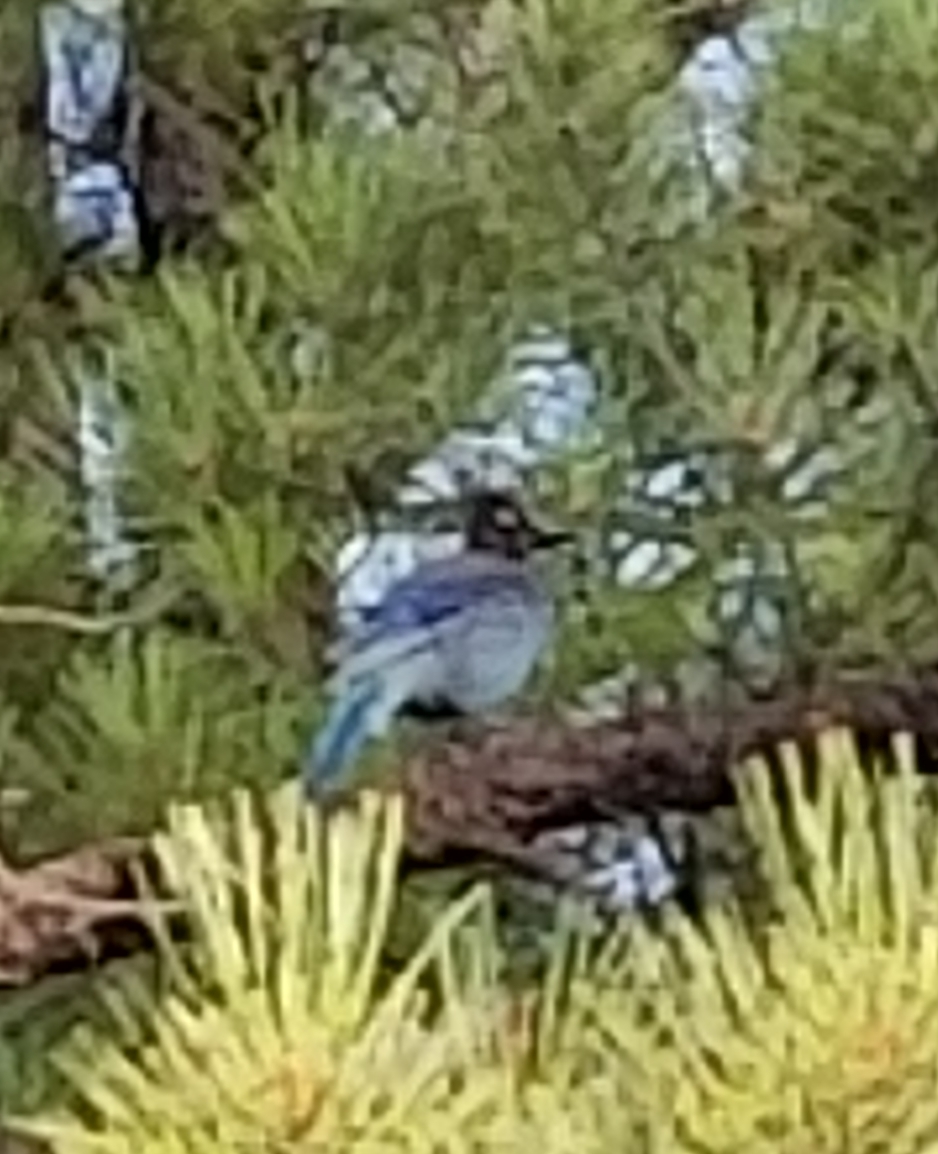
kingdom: Animalia
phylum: Chordata
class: Aves
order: Passeriformes
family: Corvidae
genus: Cyanocitta
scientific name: Cyanocitta stelleri
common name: Steller's jay
